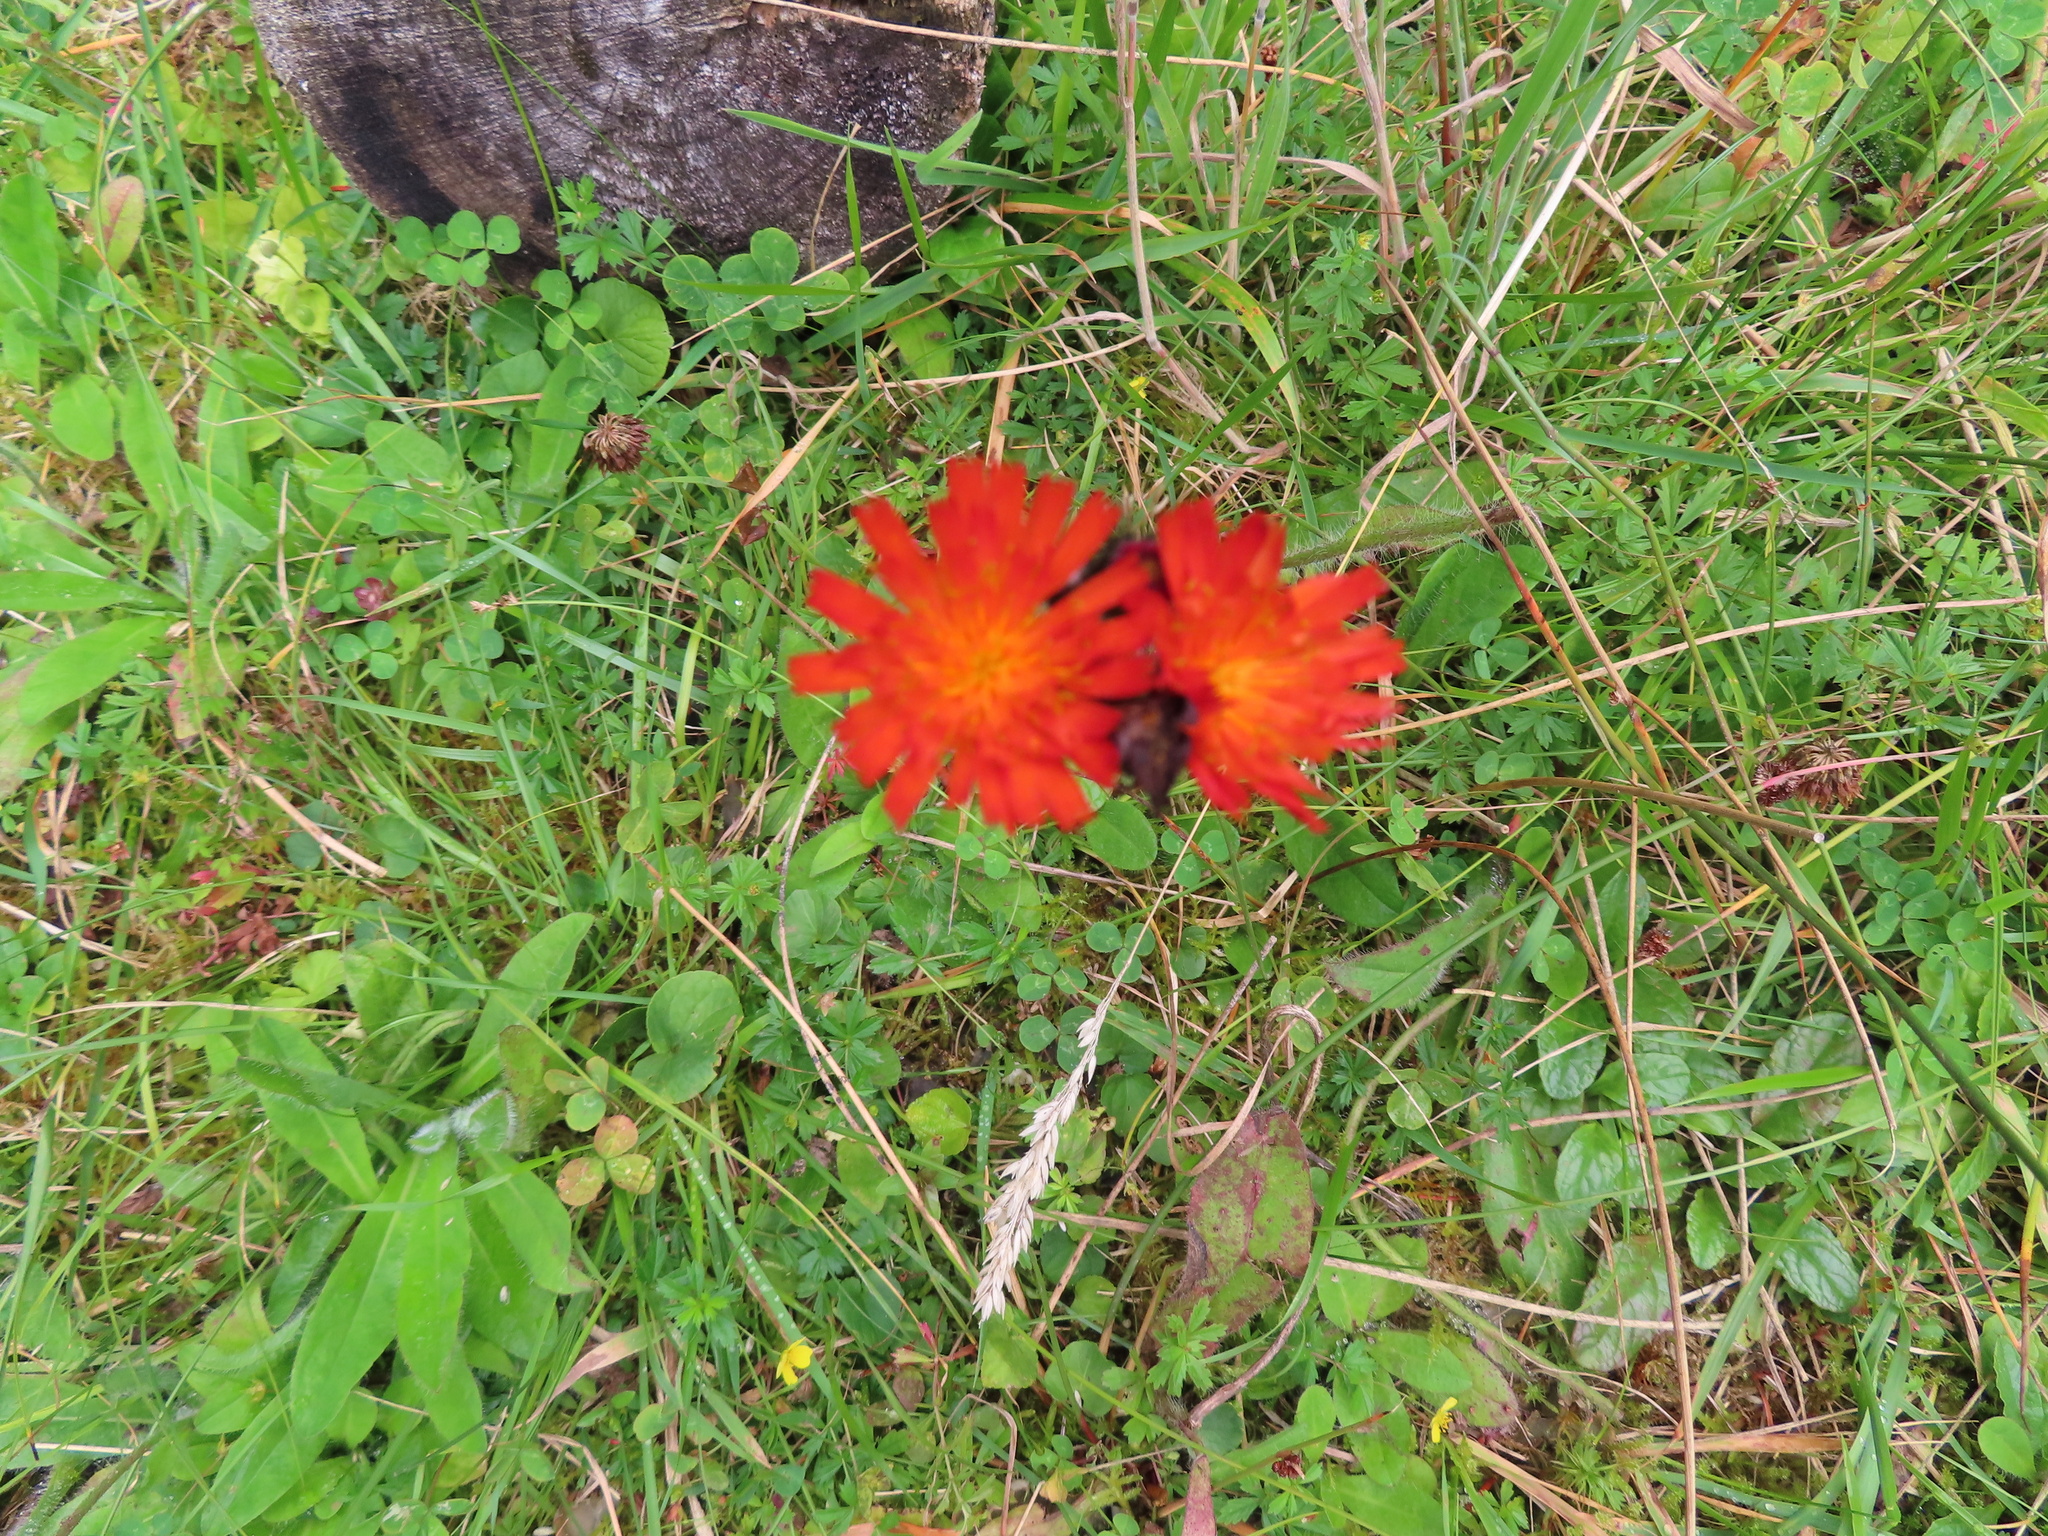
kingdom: Plantae
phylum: Tracheophyta
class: Magnoliopsida
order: Asterales
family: Asteraceae
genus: Pilosella
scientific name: Pilosella aurantiaca
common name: Fox-and-cubs
